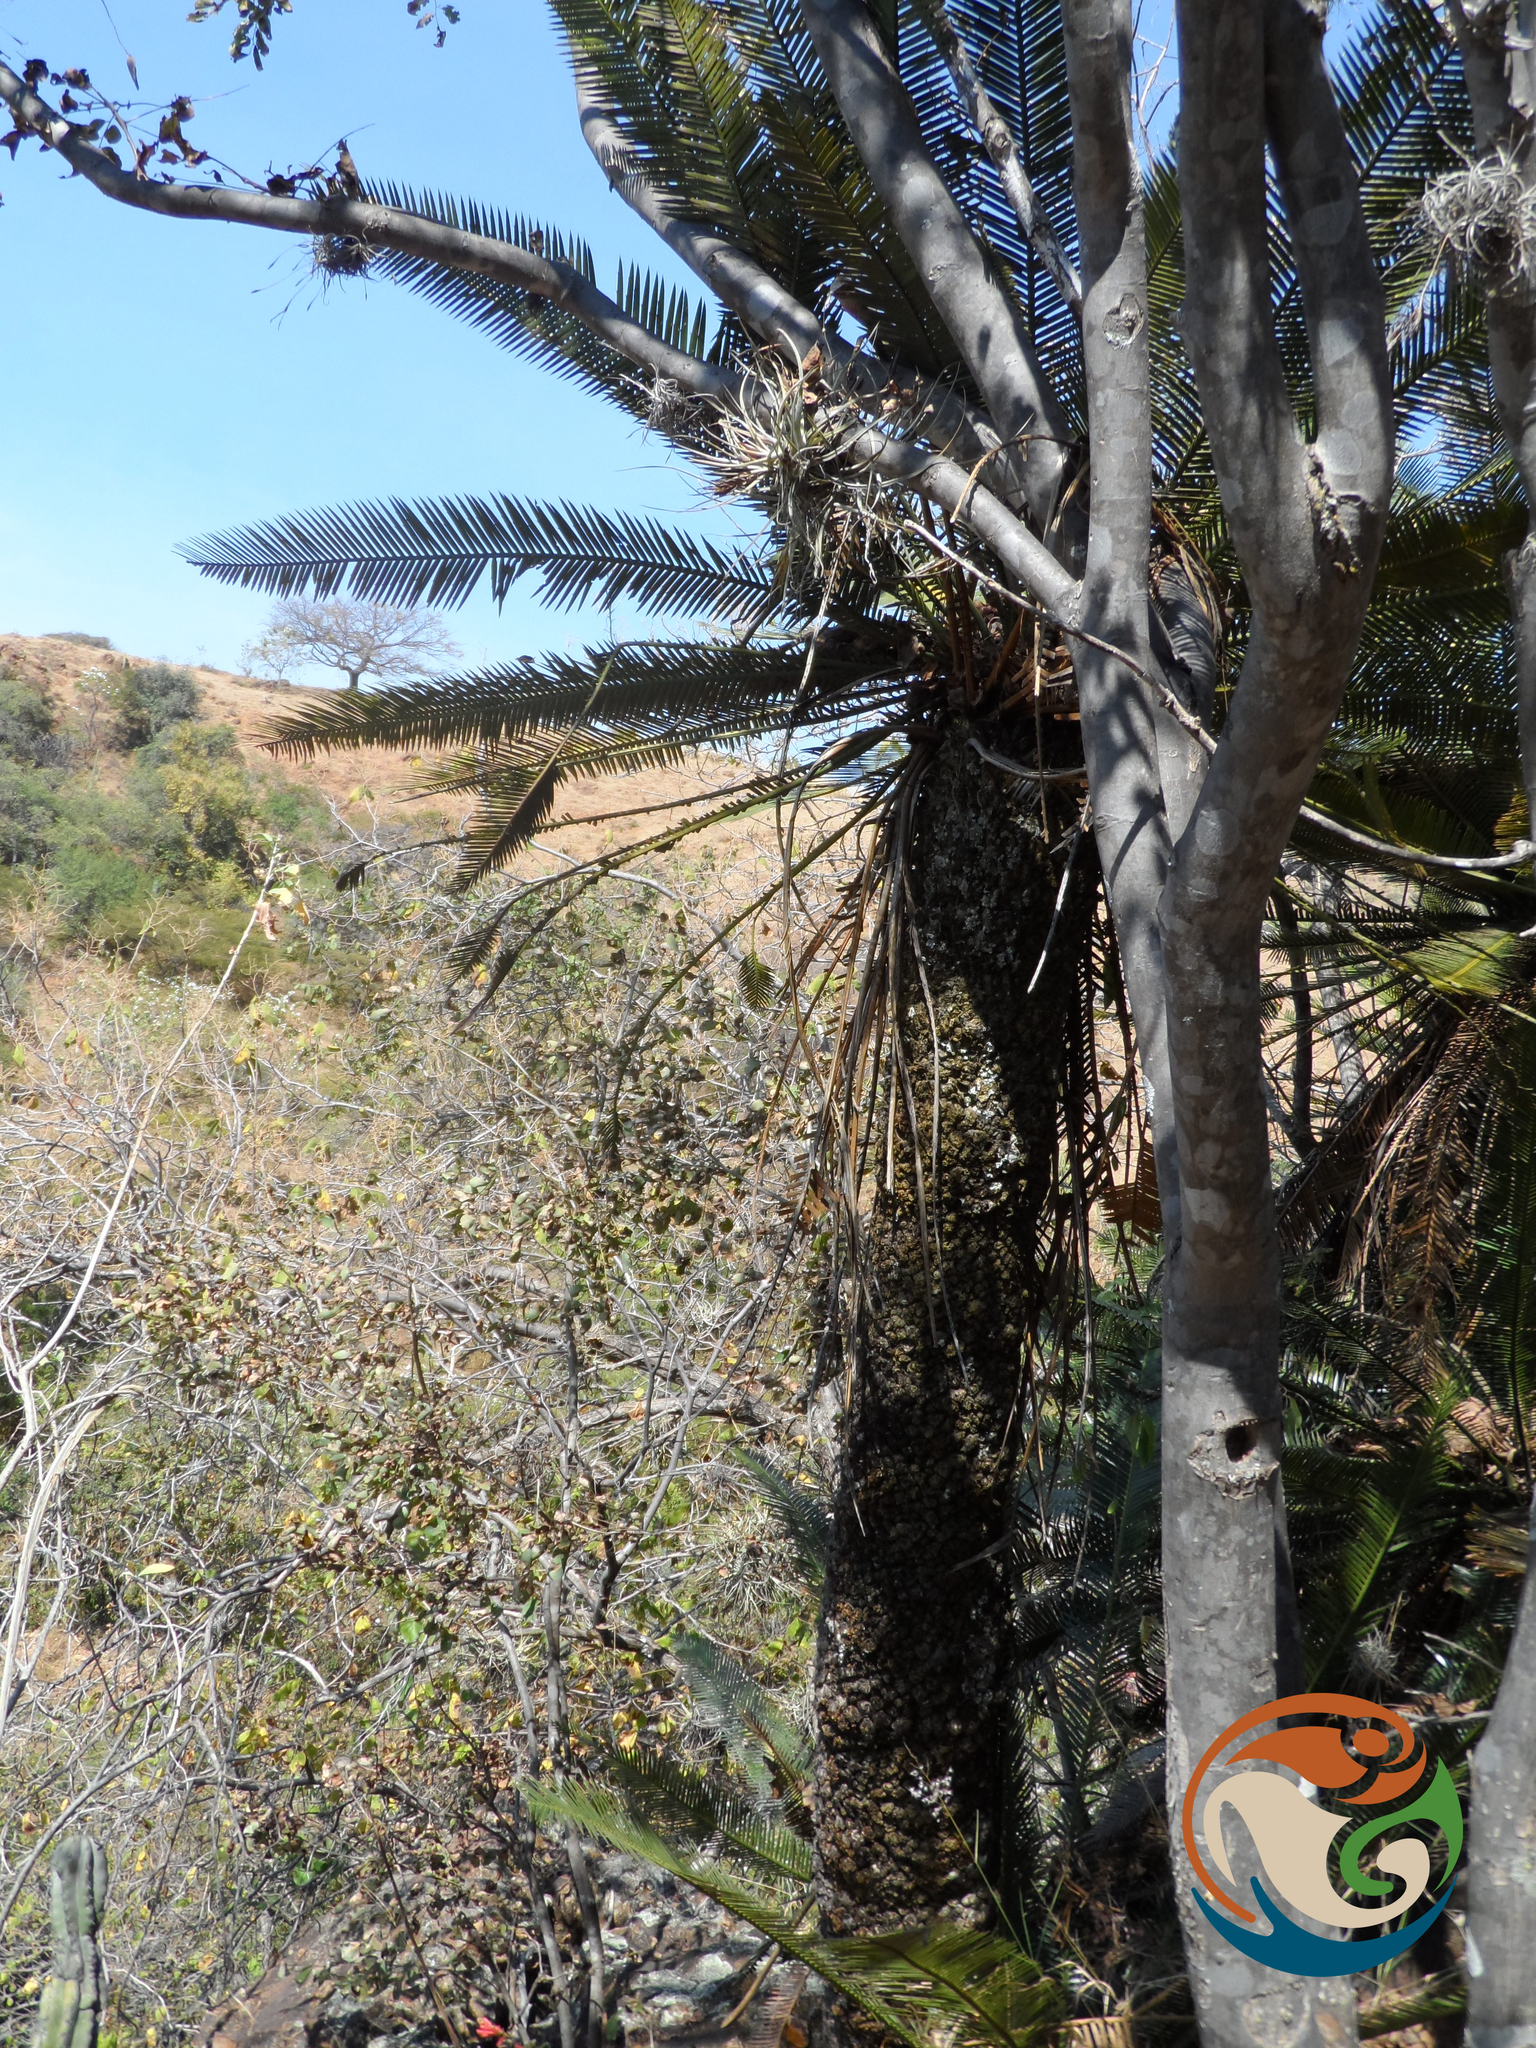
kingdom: Plantae
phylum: Tracheophyta
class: Cycadopsida
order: Cycadales
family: Zamiaceae
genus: Dioon
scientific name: Dioon planifolium
